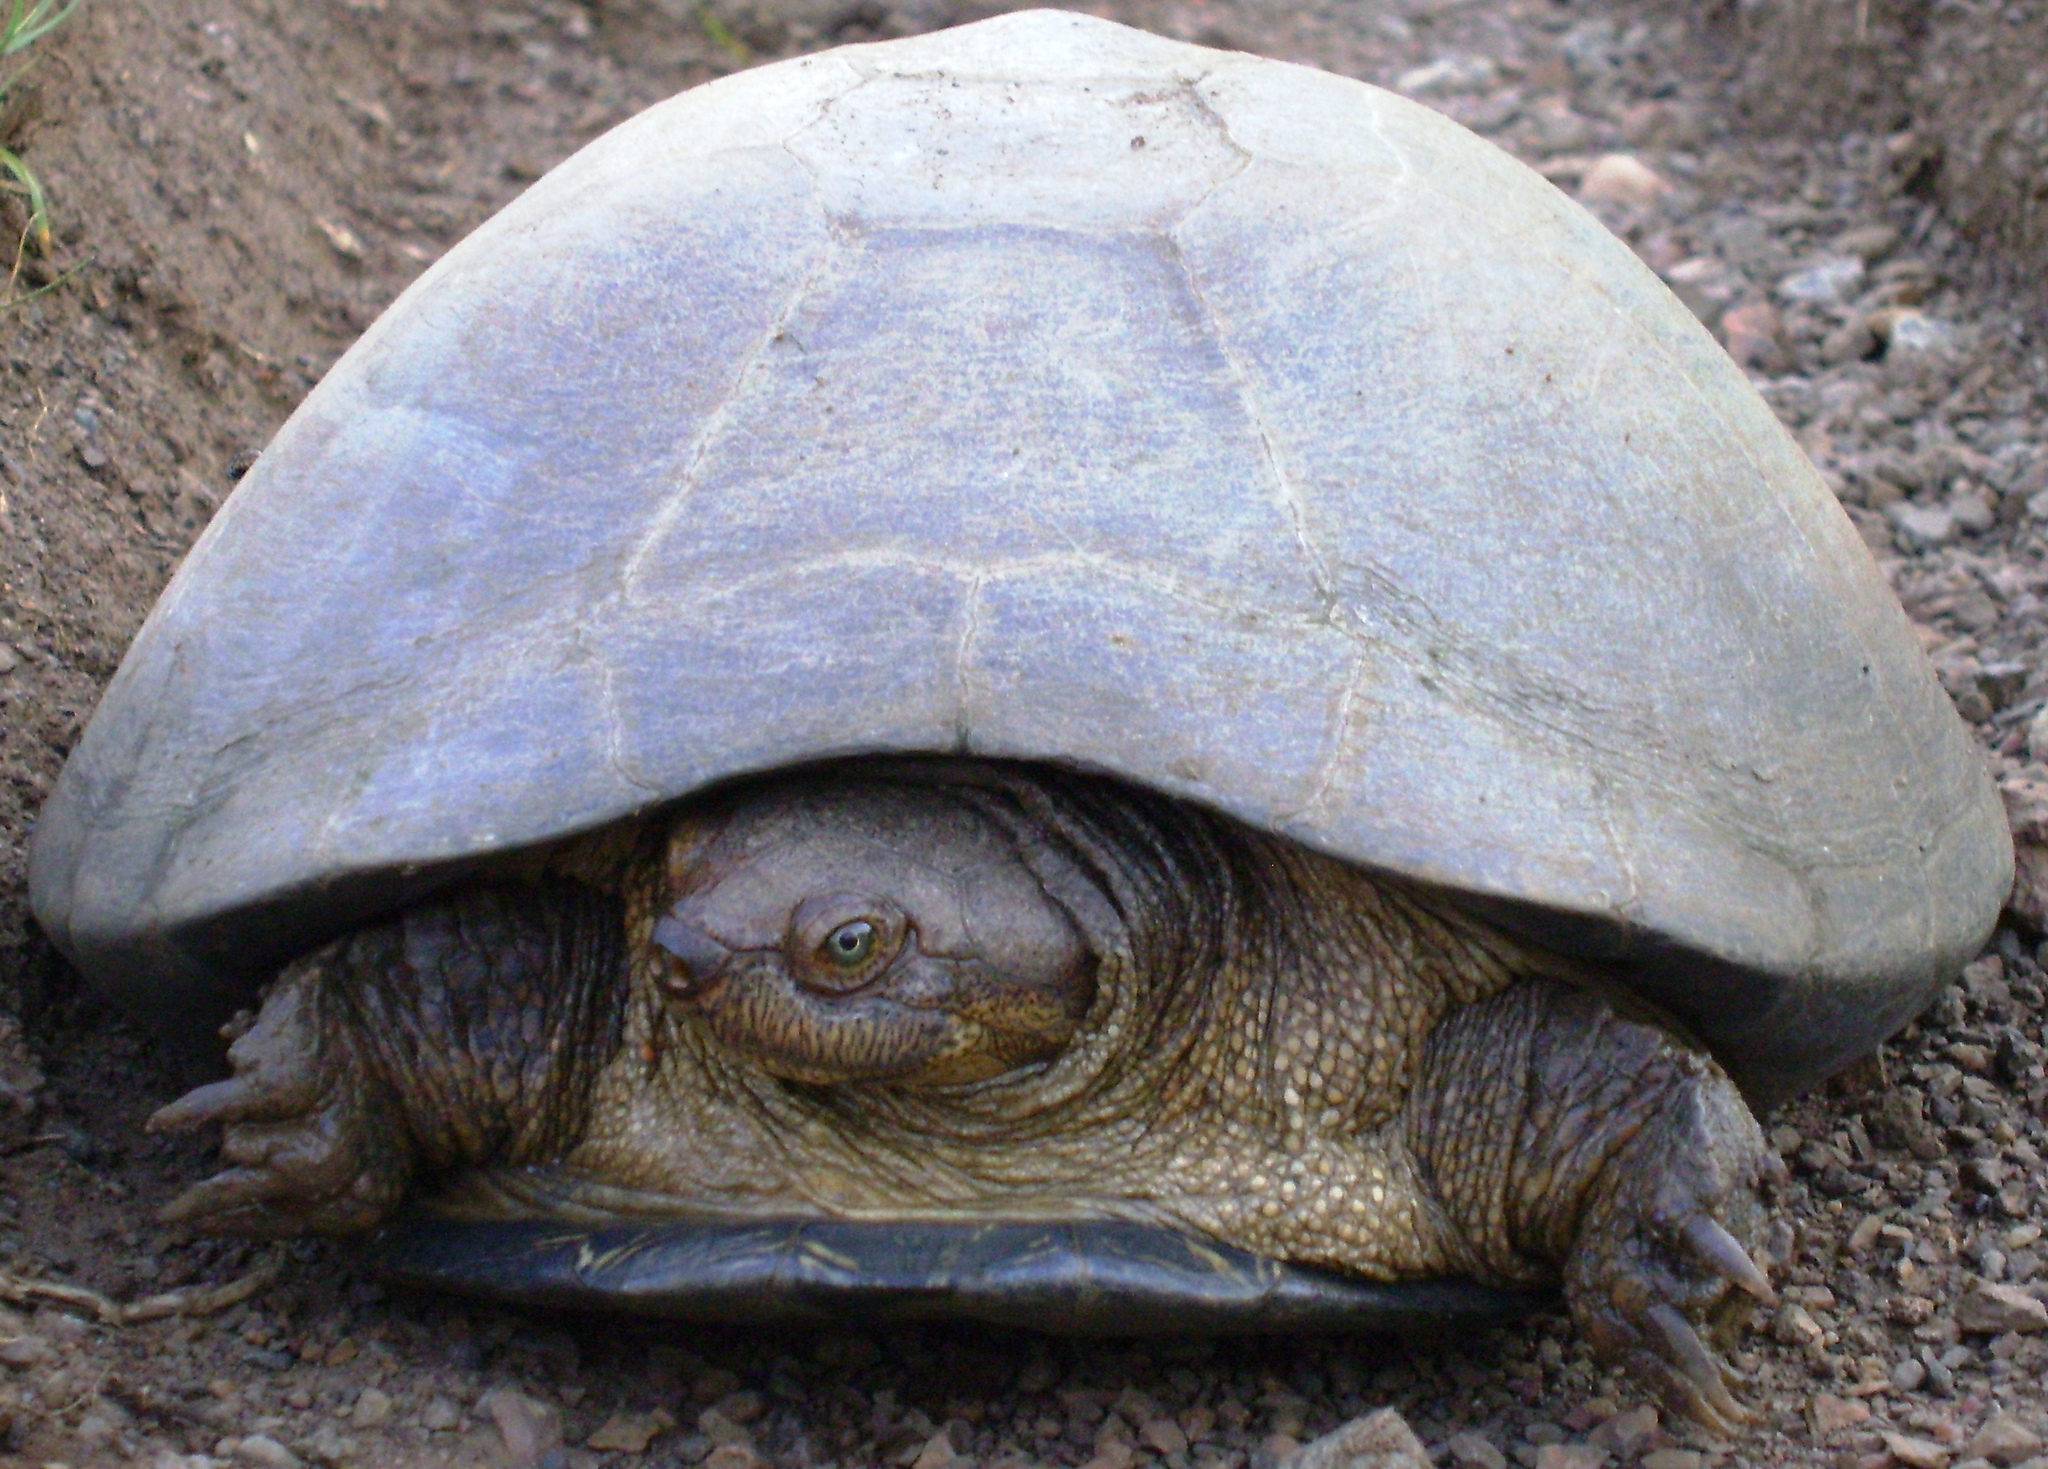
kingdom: Animalia
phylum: Chordata
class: Testudines
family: Pelomedusidae
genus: Pelusios
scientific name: Pelusios sinuatus
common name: Serrated hinged terrapin
